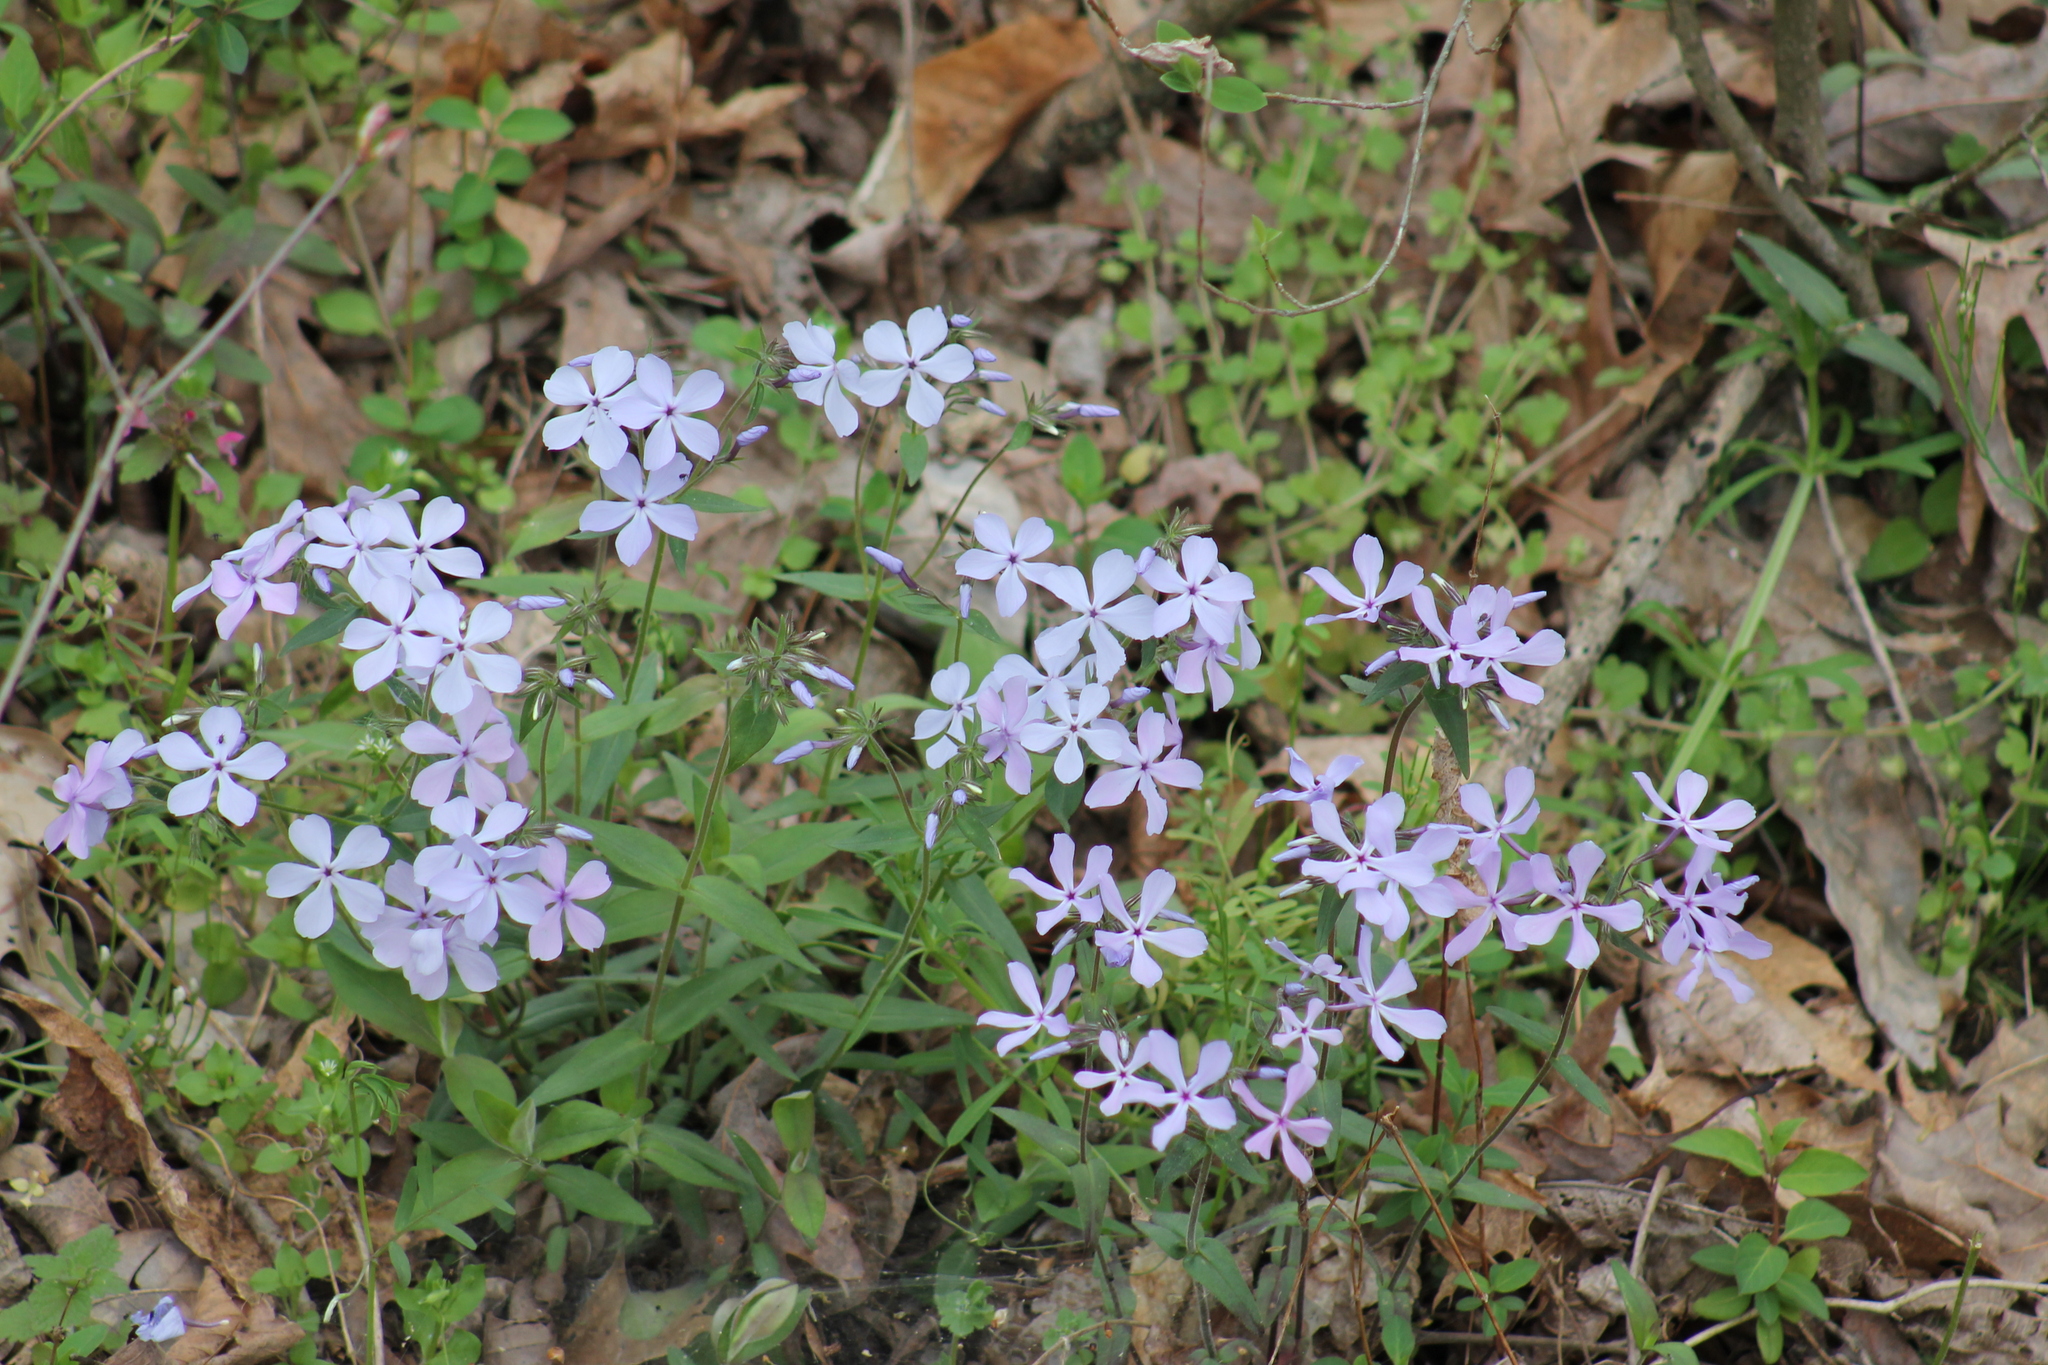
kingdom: Plantae
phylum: Tracheophyta
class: Magnoliopsida
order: Ericales
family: Polemoniaceae
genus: Phlox
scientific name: Phlox divaricata
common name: Blue phlox
